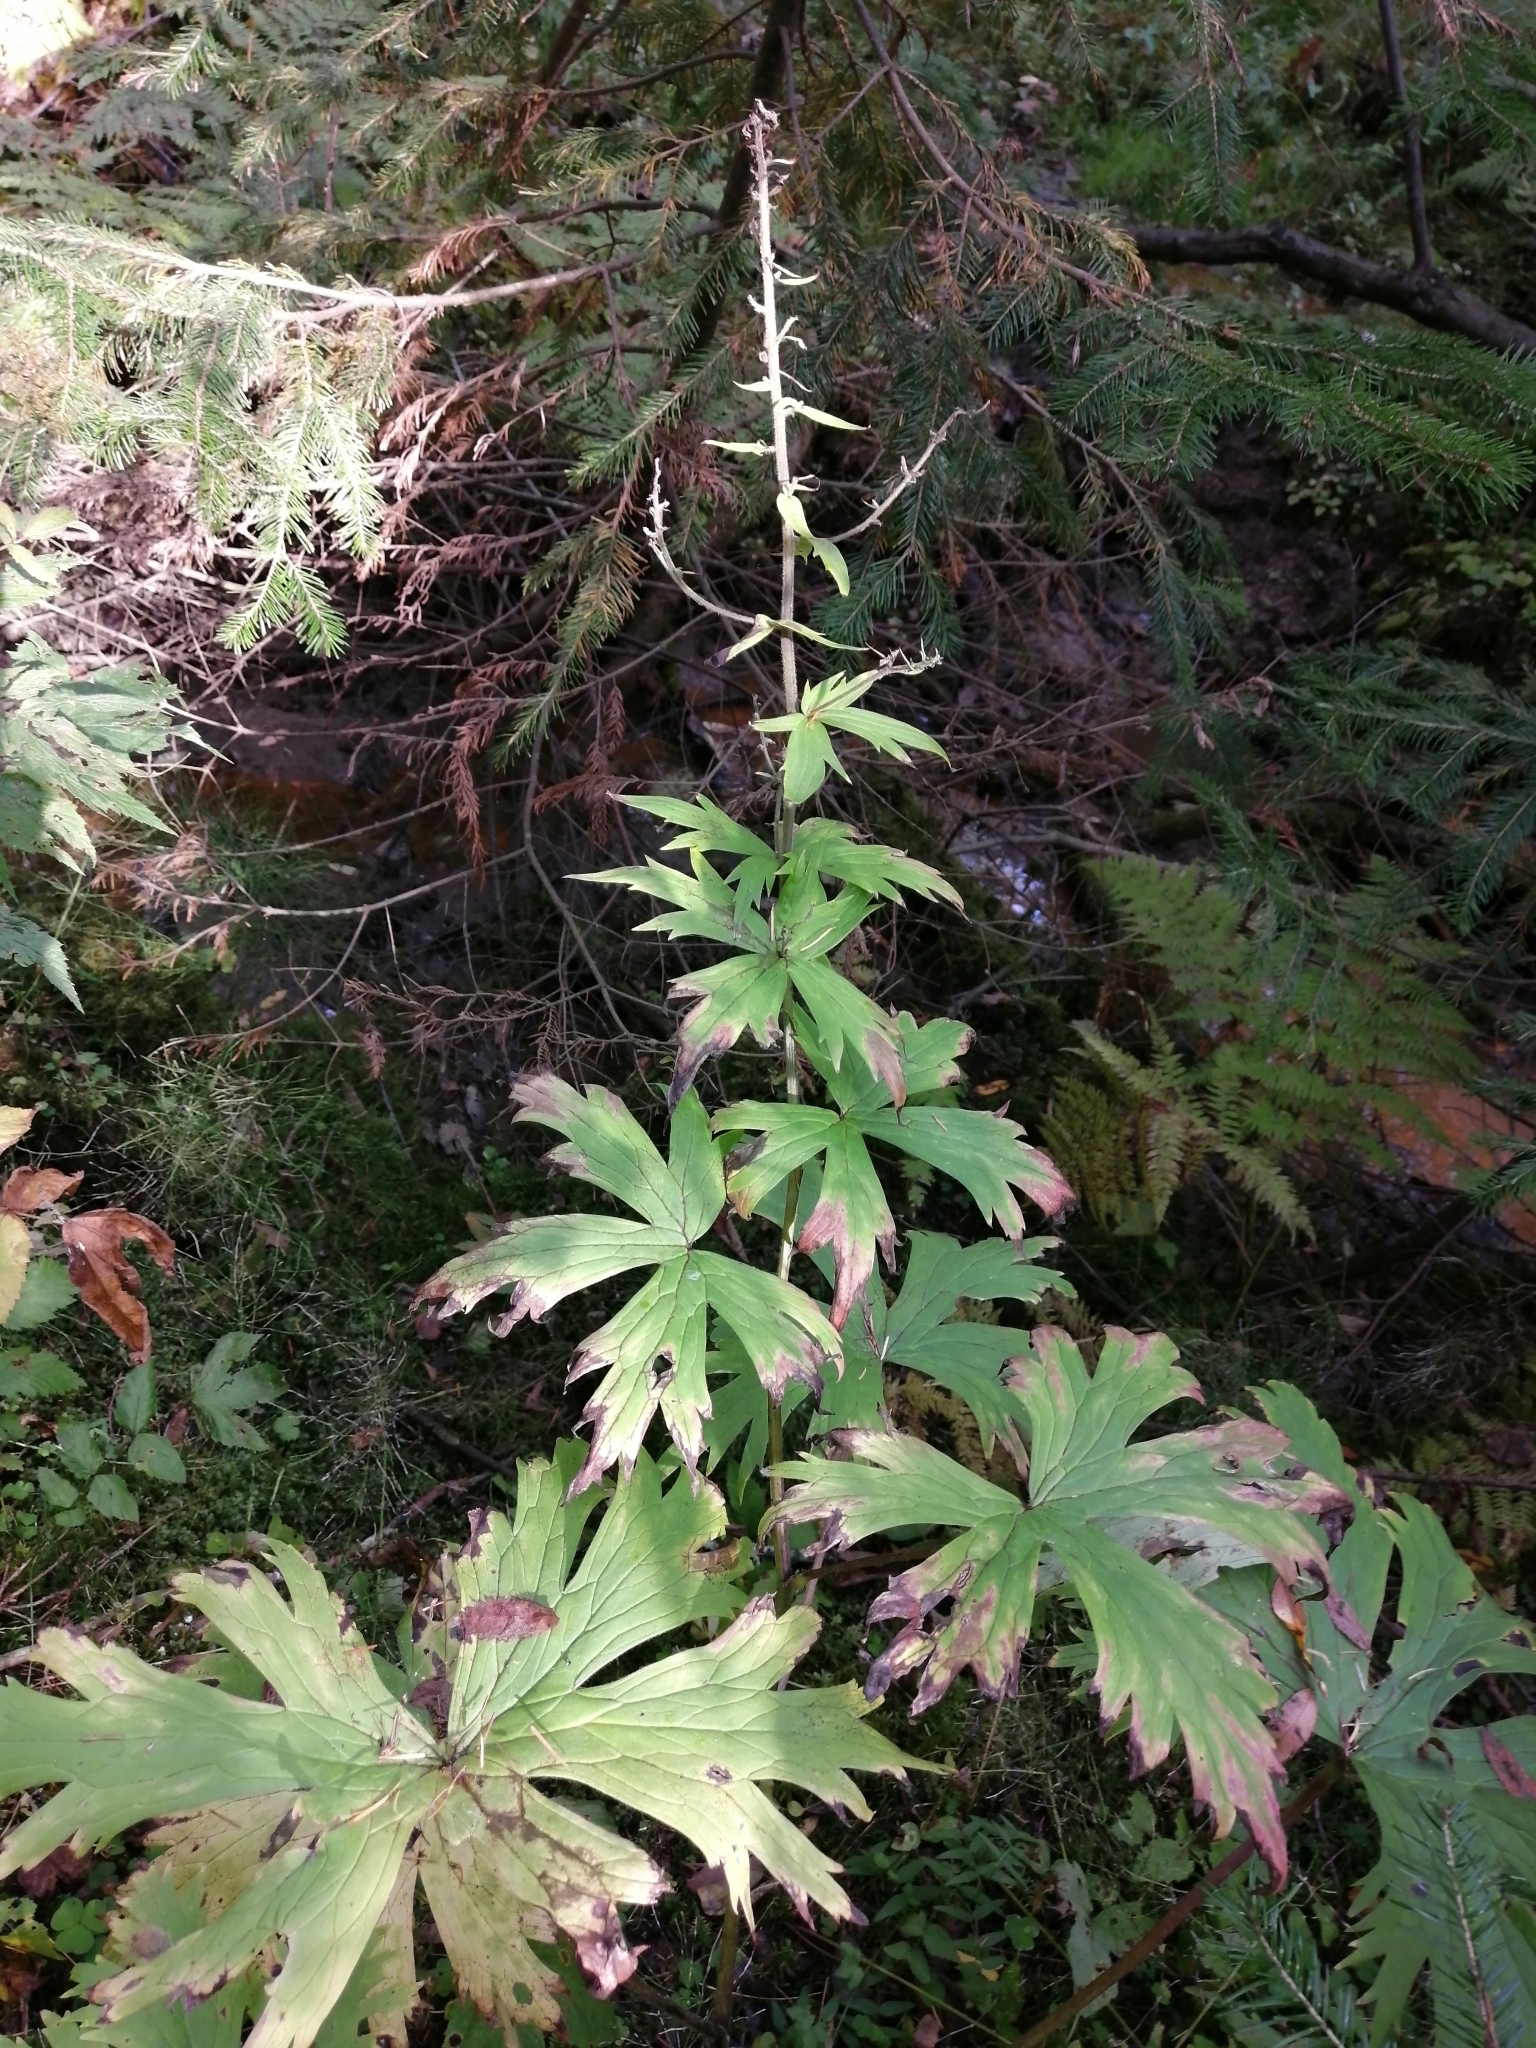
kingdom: Plantae
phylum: Tracheophyta
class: Magnoliopsida
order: Ranunculales
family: Ranunculaceae
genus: Aconitum
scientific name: Aconitum septentrionale
